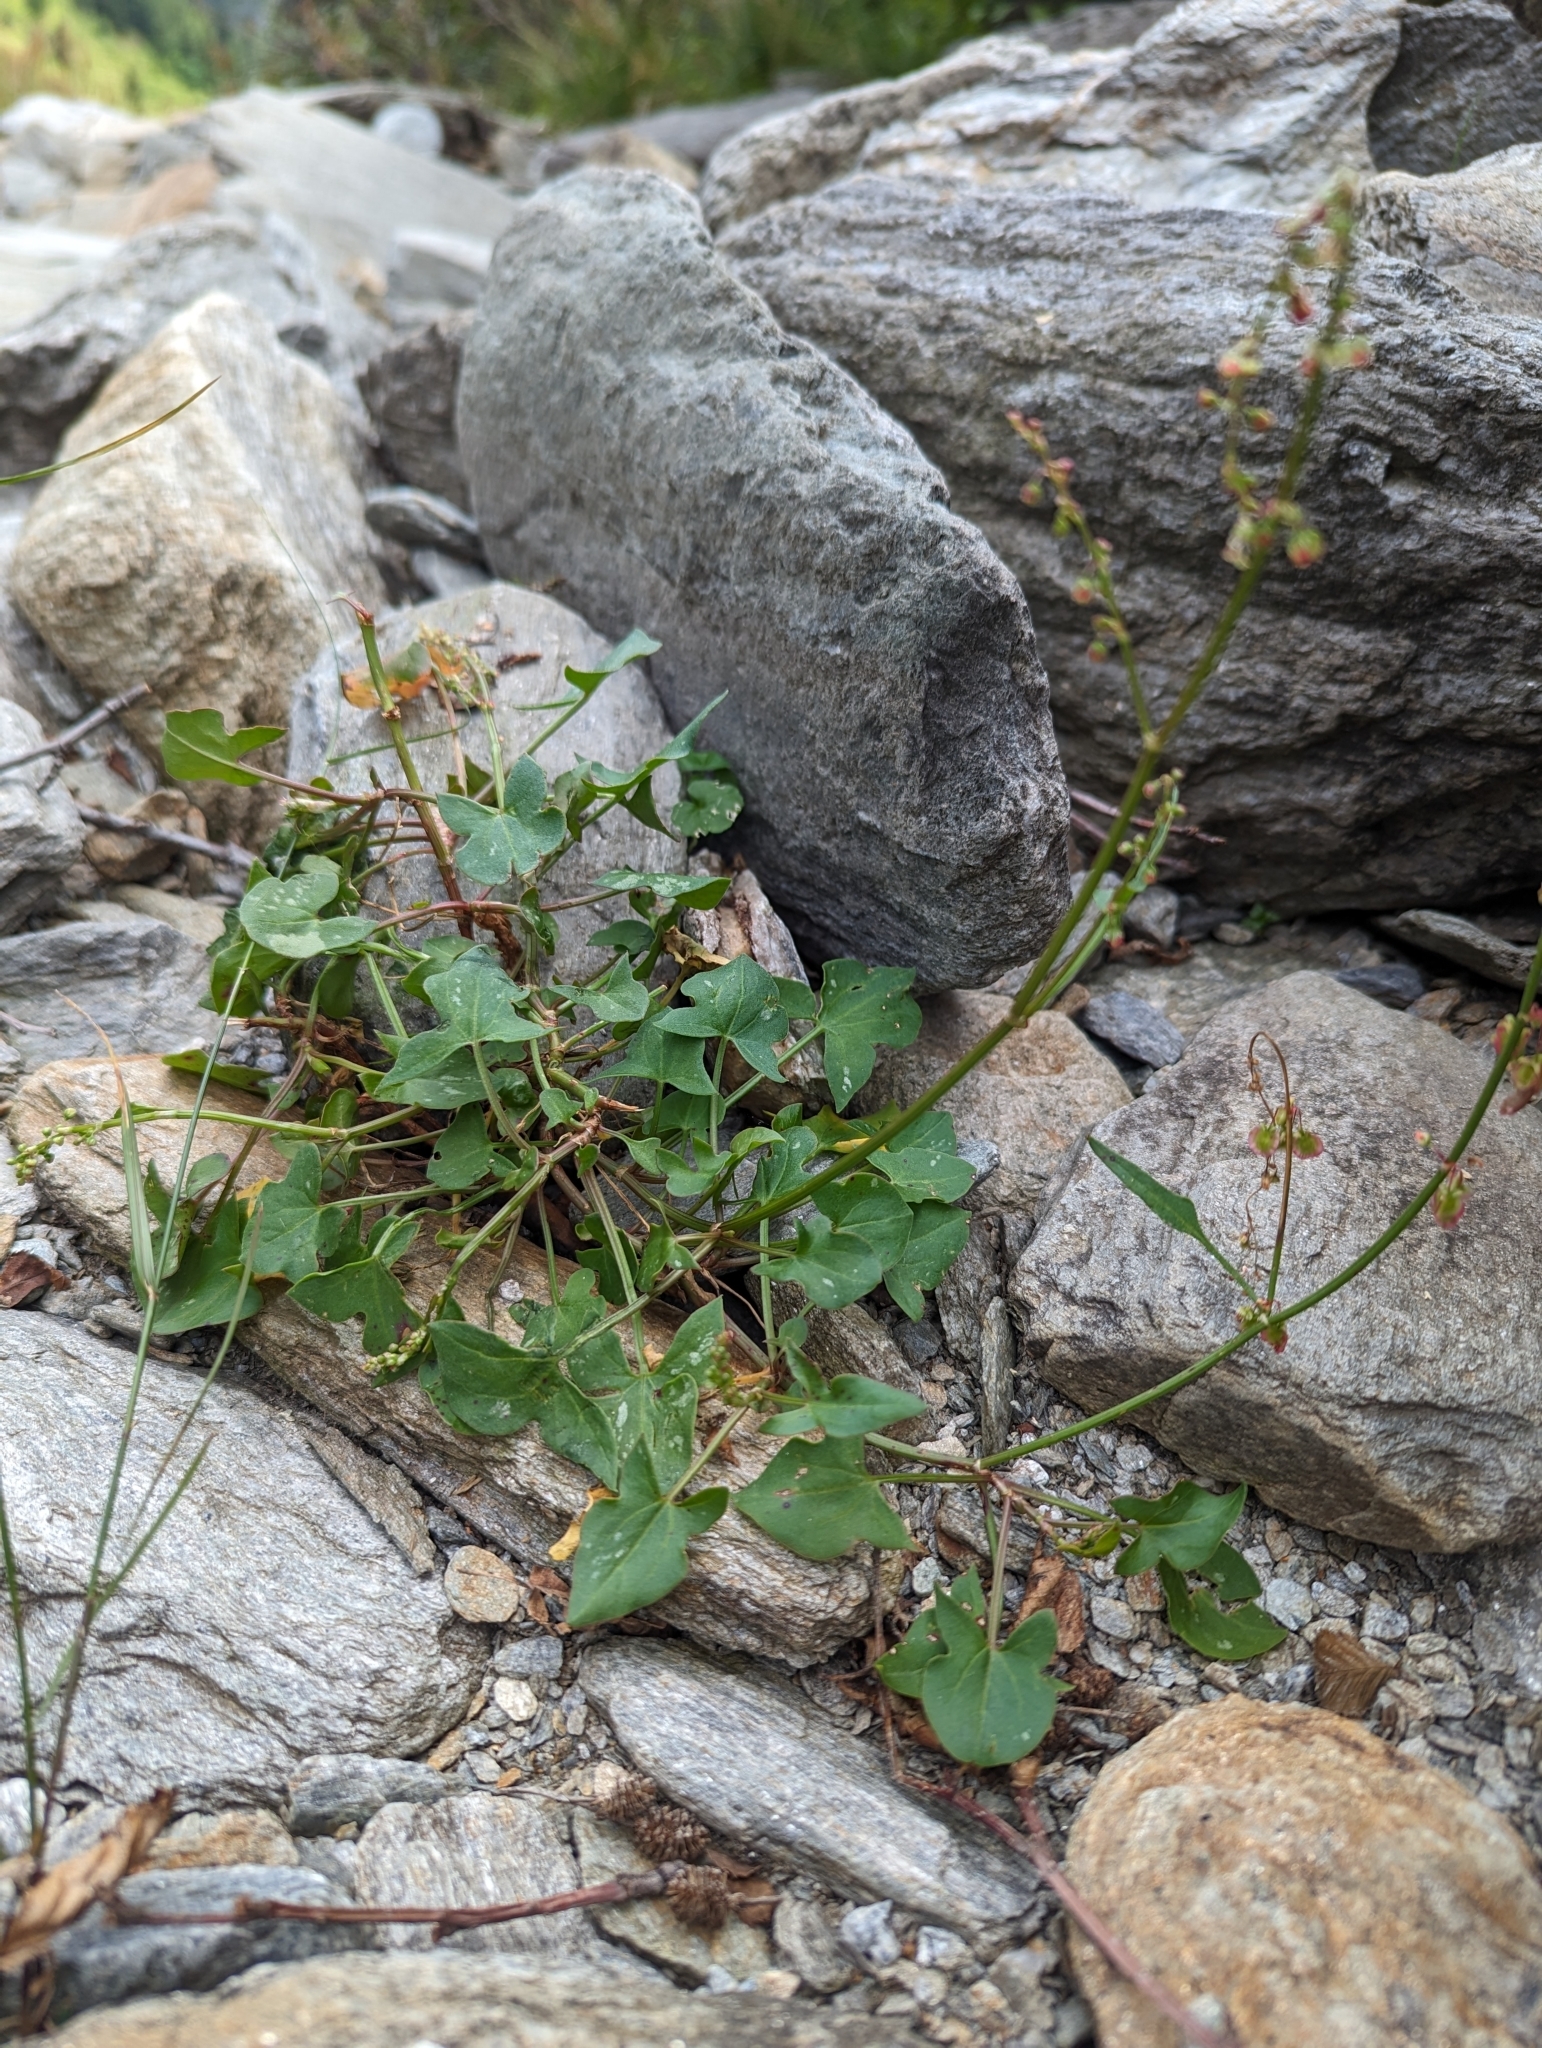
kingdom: Plantae
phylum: Tracheophyta
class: Magnoliopsida
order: Caryophyllales
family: Polygonaceae
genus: Rumex
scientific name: Rumex scutatus
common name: French sorrel
